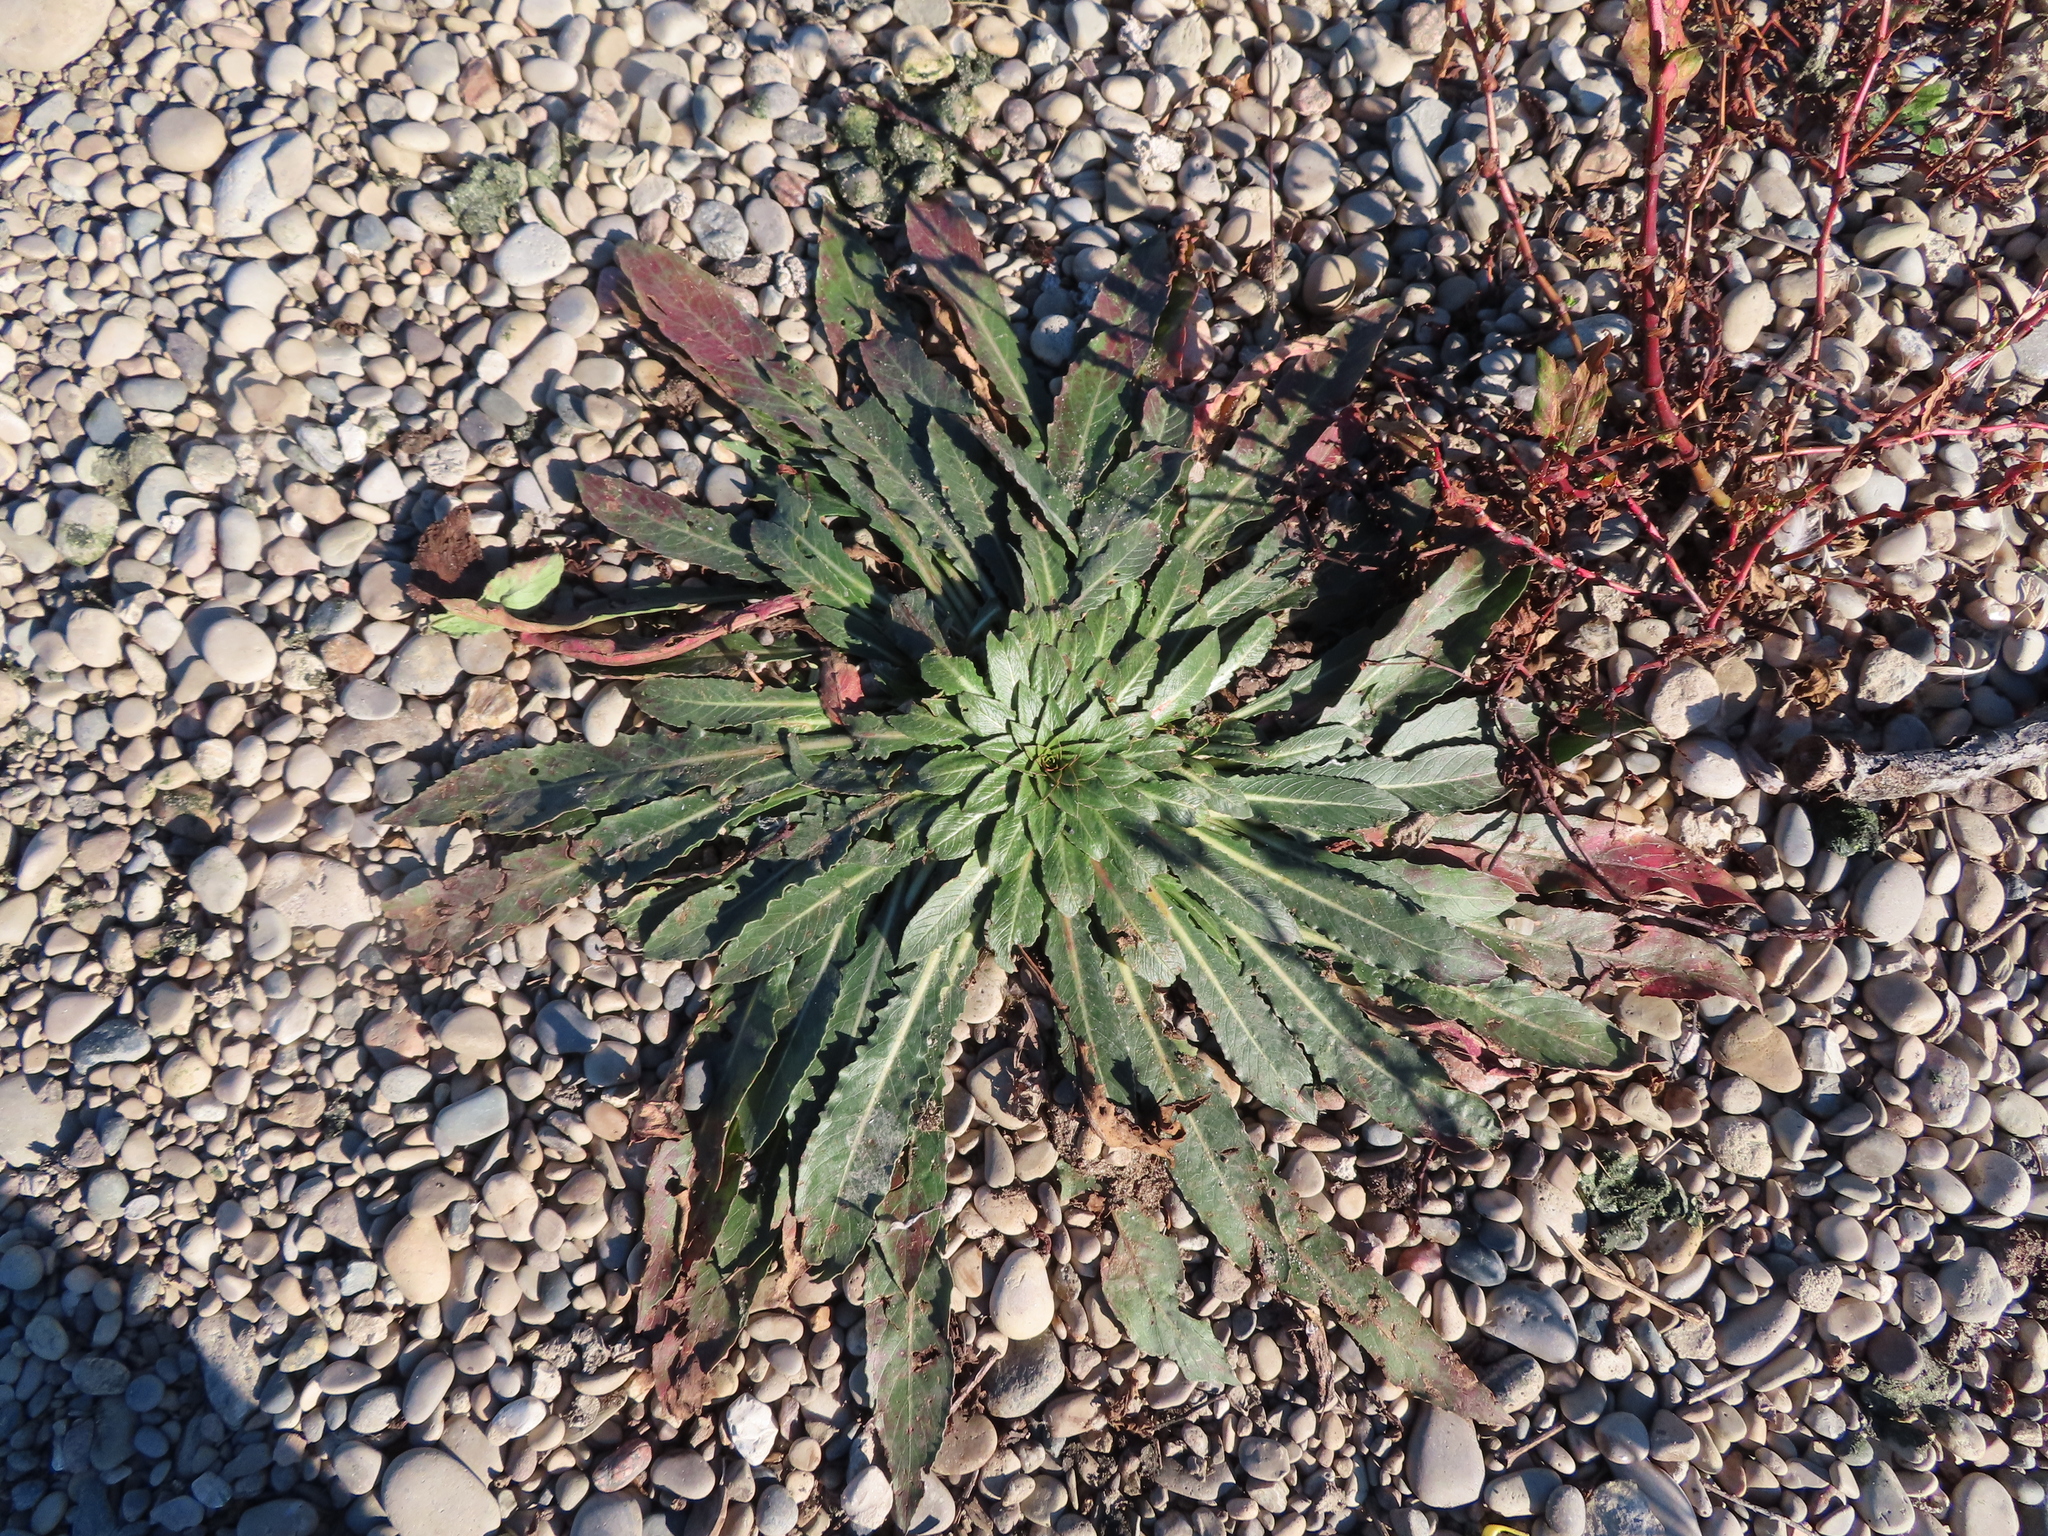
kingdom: Plantae
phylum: Tracheophyta
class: Magnoliopsida
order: Myrtales
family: Onagraceae
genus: Oenothera
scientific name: Oenothera biennis
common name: Common evening-primrose
